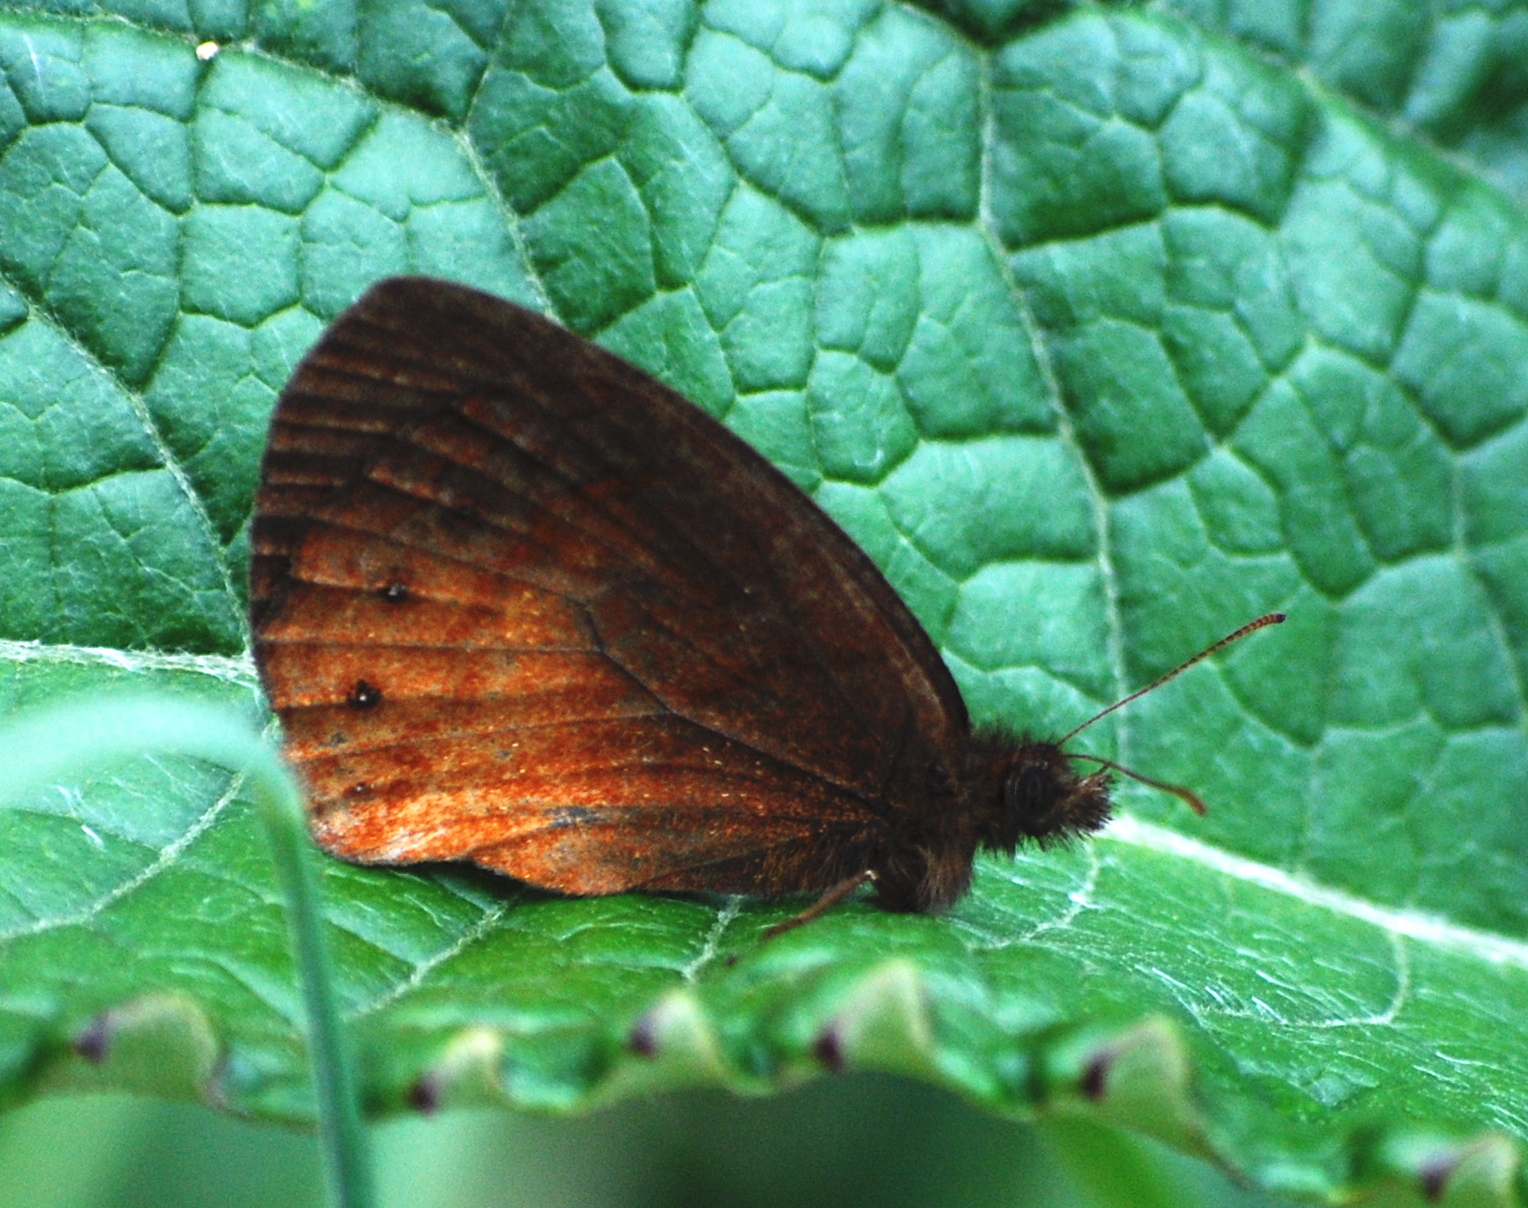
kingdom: Animalia
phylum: Arthropoda
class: Insecta
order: Lepidoptera
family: Nymphalidae
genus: Eretris
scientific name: Eretris apuleja
